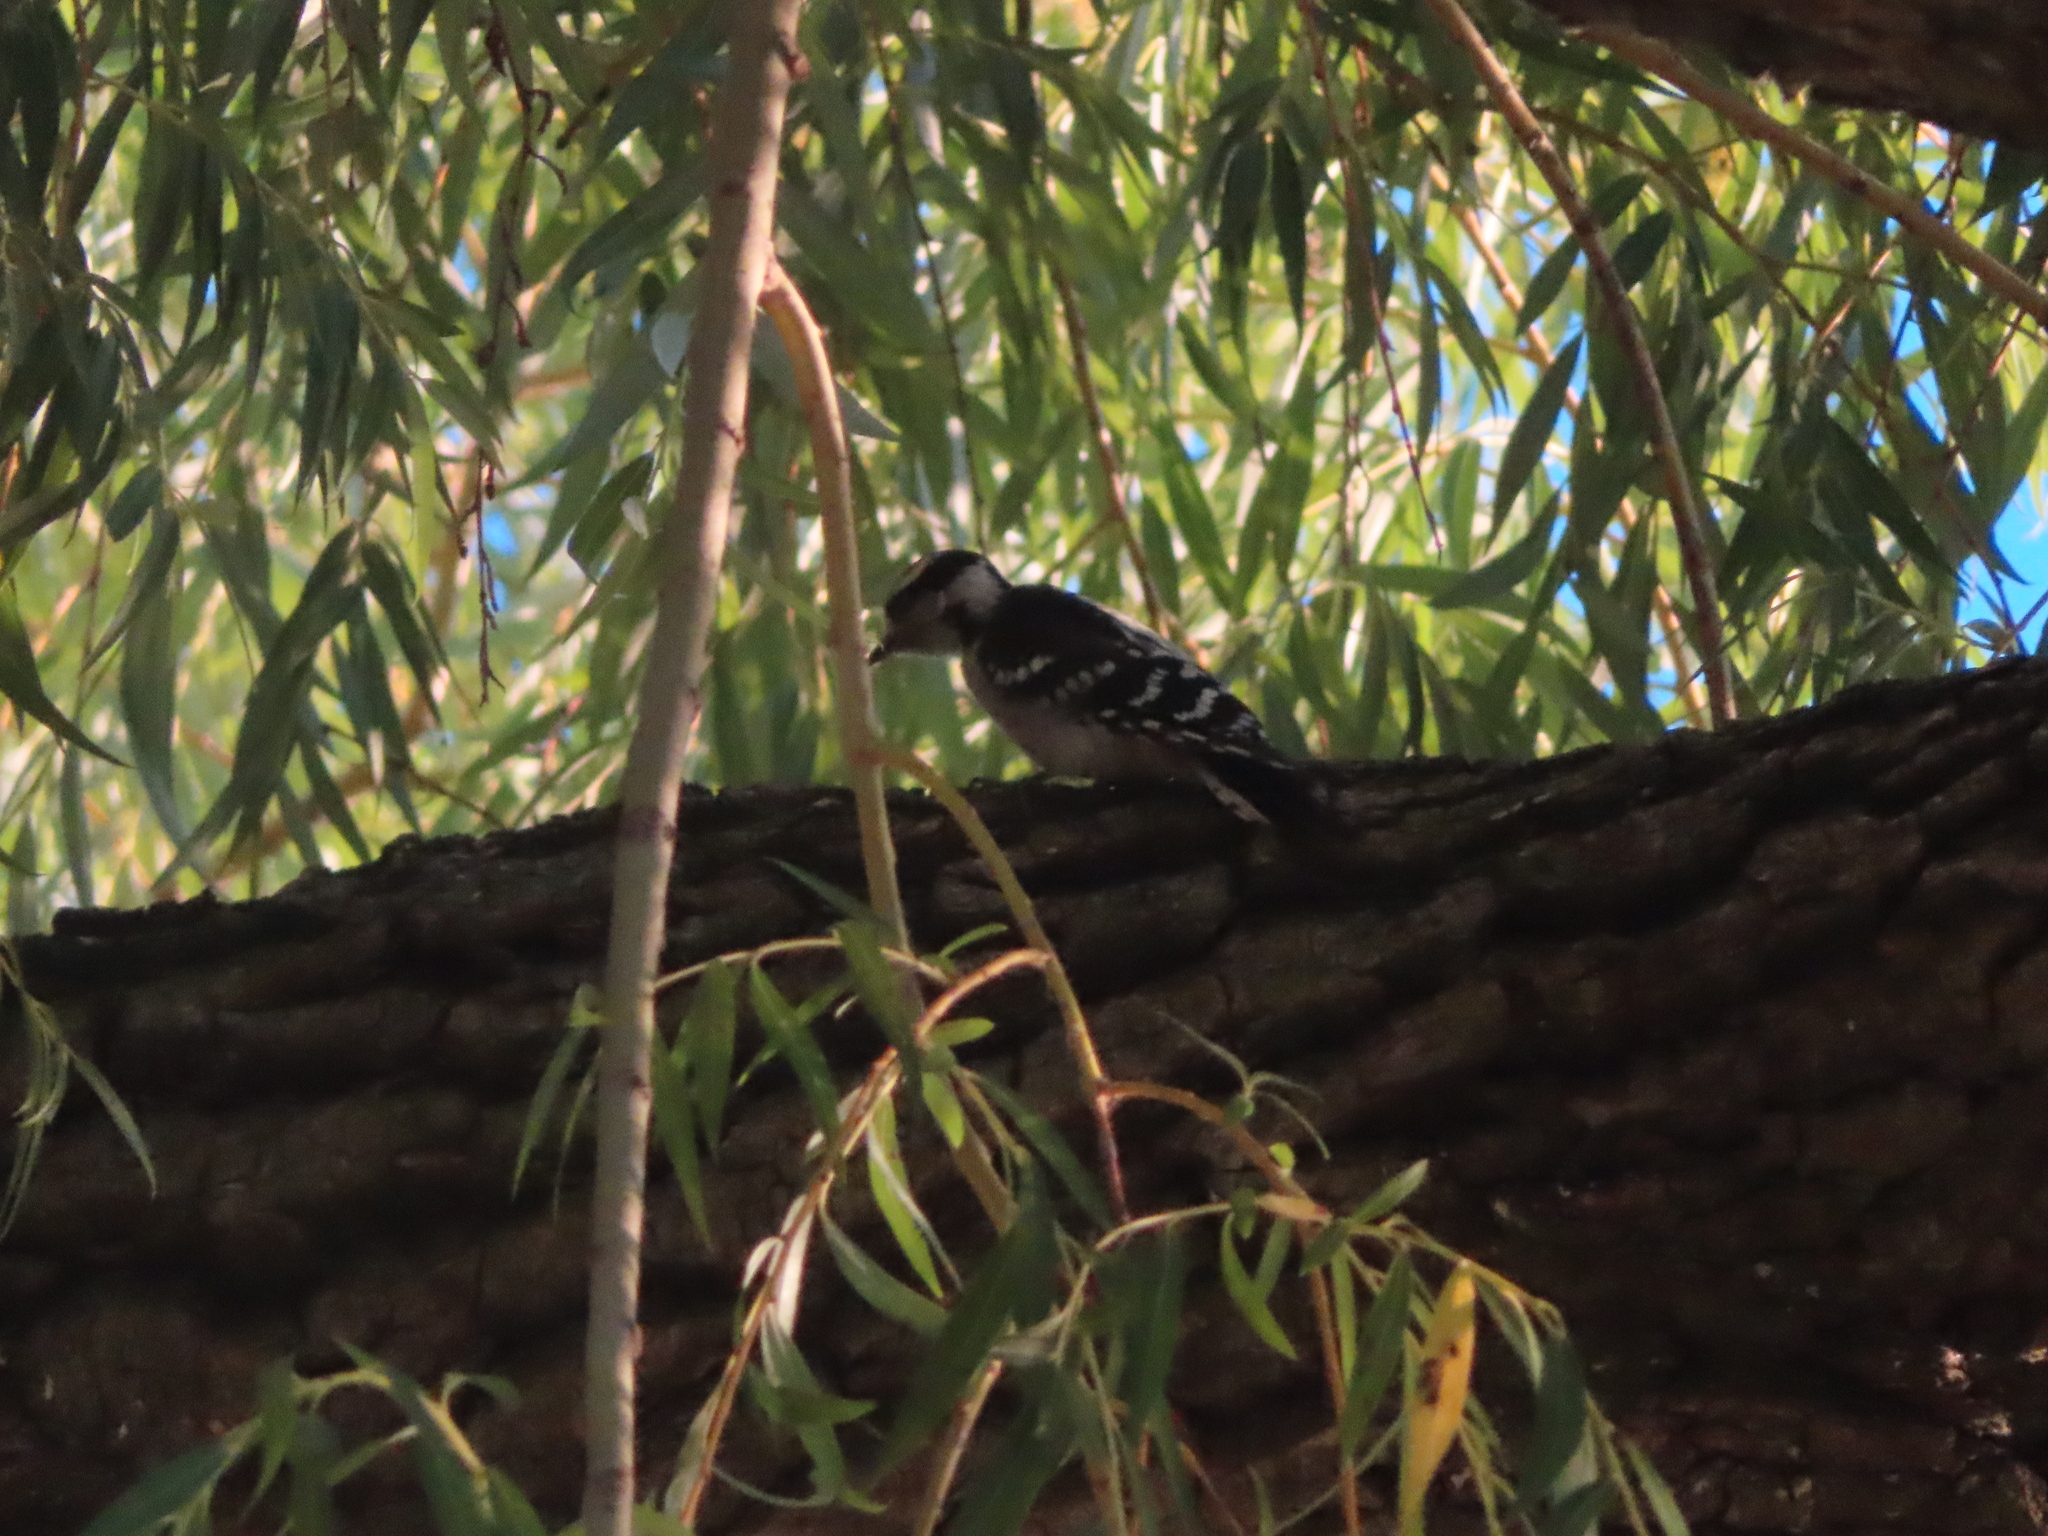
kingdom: Animalia
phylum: Chordata
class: Aves
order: Piciformes
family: Picidae
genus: Dryobates
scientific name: Dryobates pubescens
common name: Downy woodpecker
